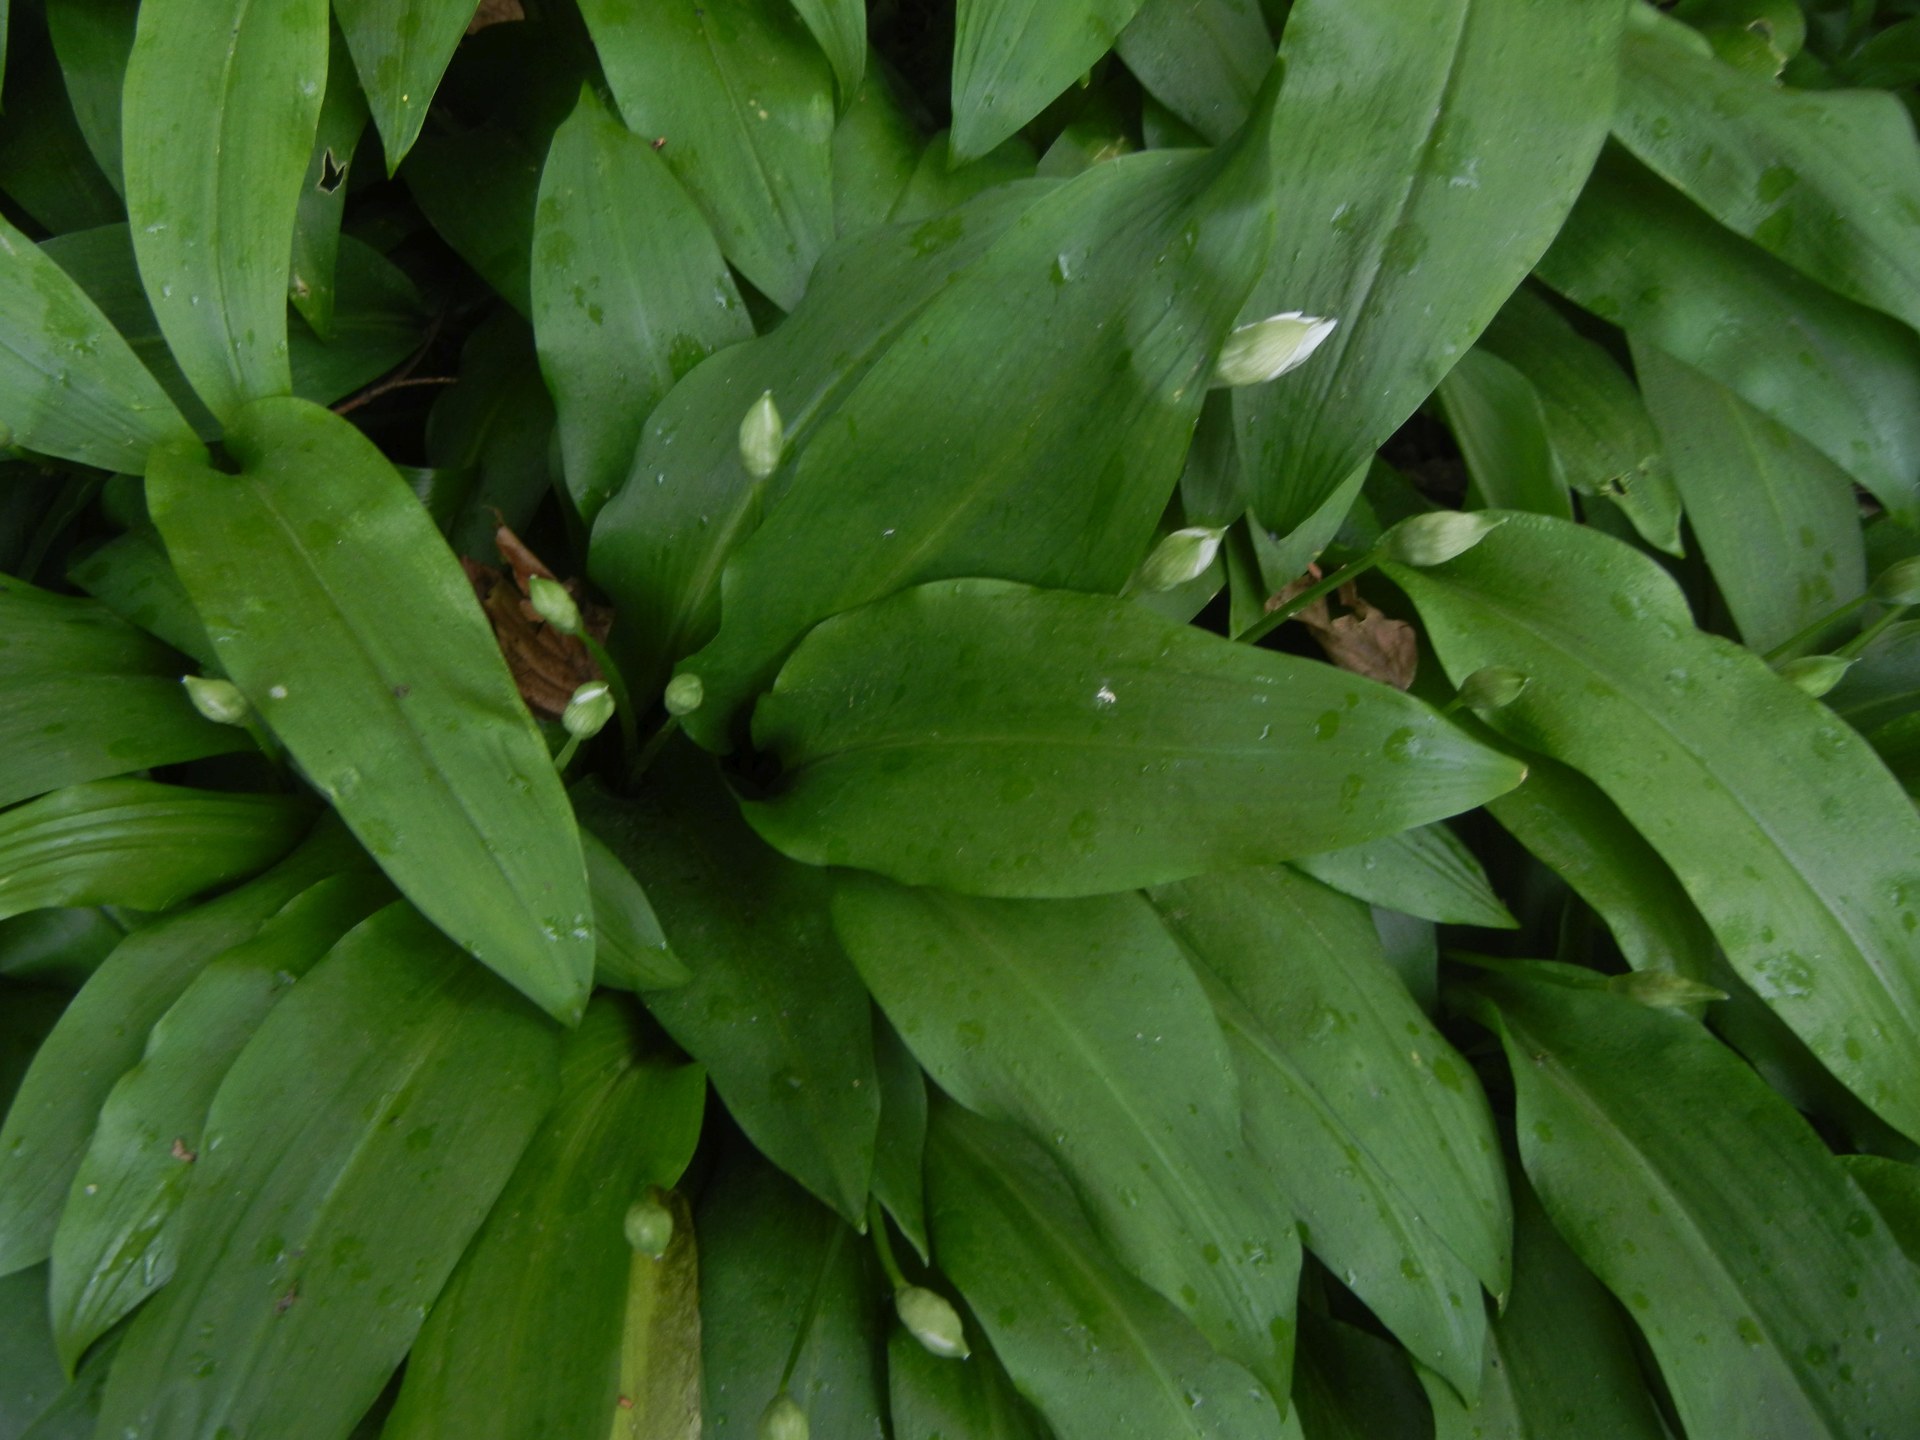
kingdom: Plantae
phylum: Tracheophyta
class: Liliopsida
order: Asparagales
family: Amaryllidaceae
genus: Allium
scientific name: Allium ursinum
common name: Ramsons
